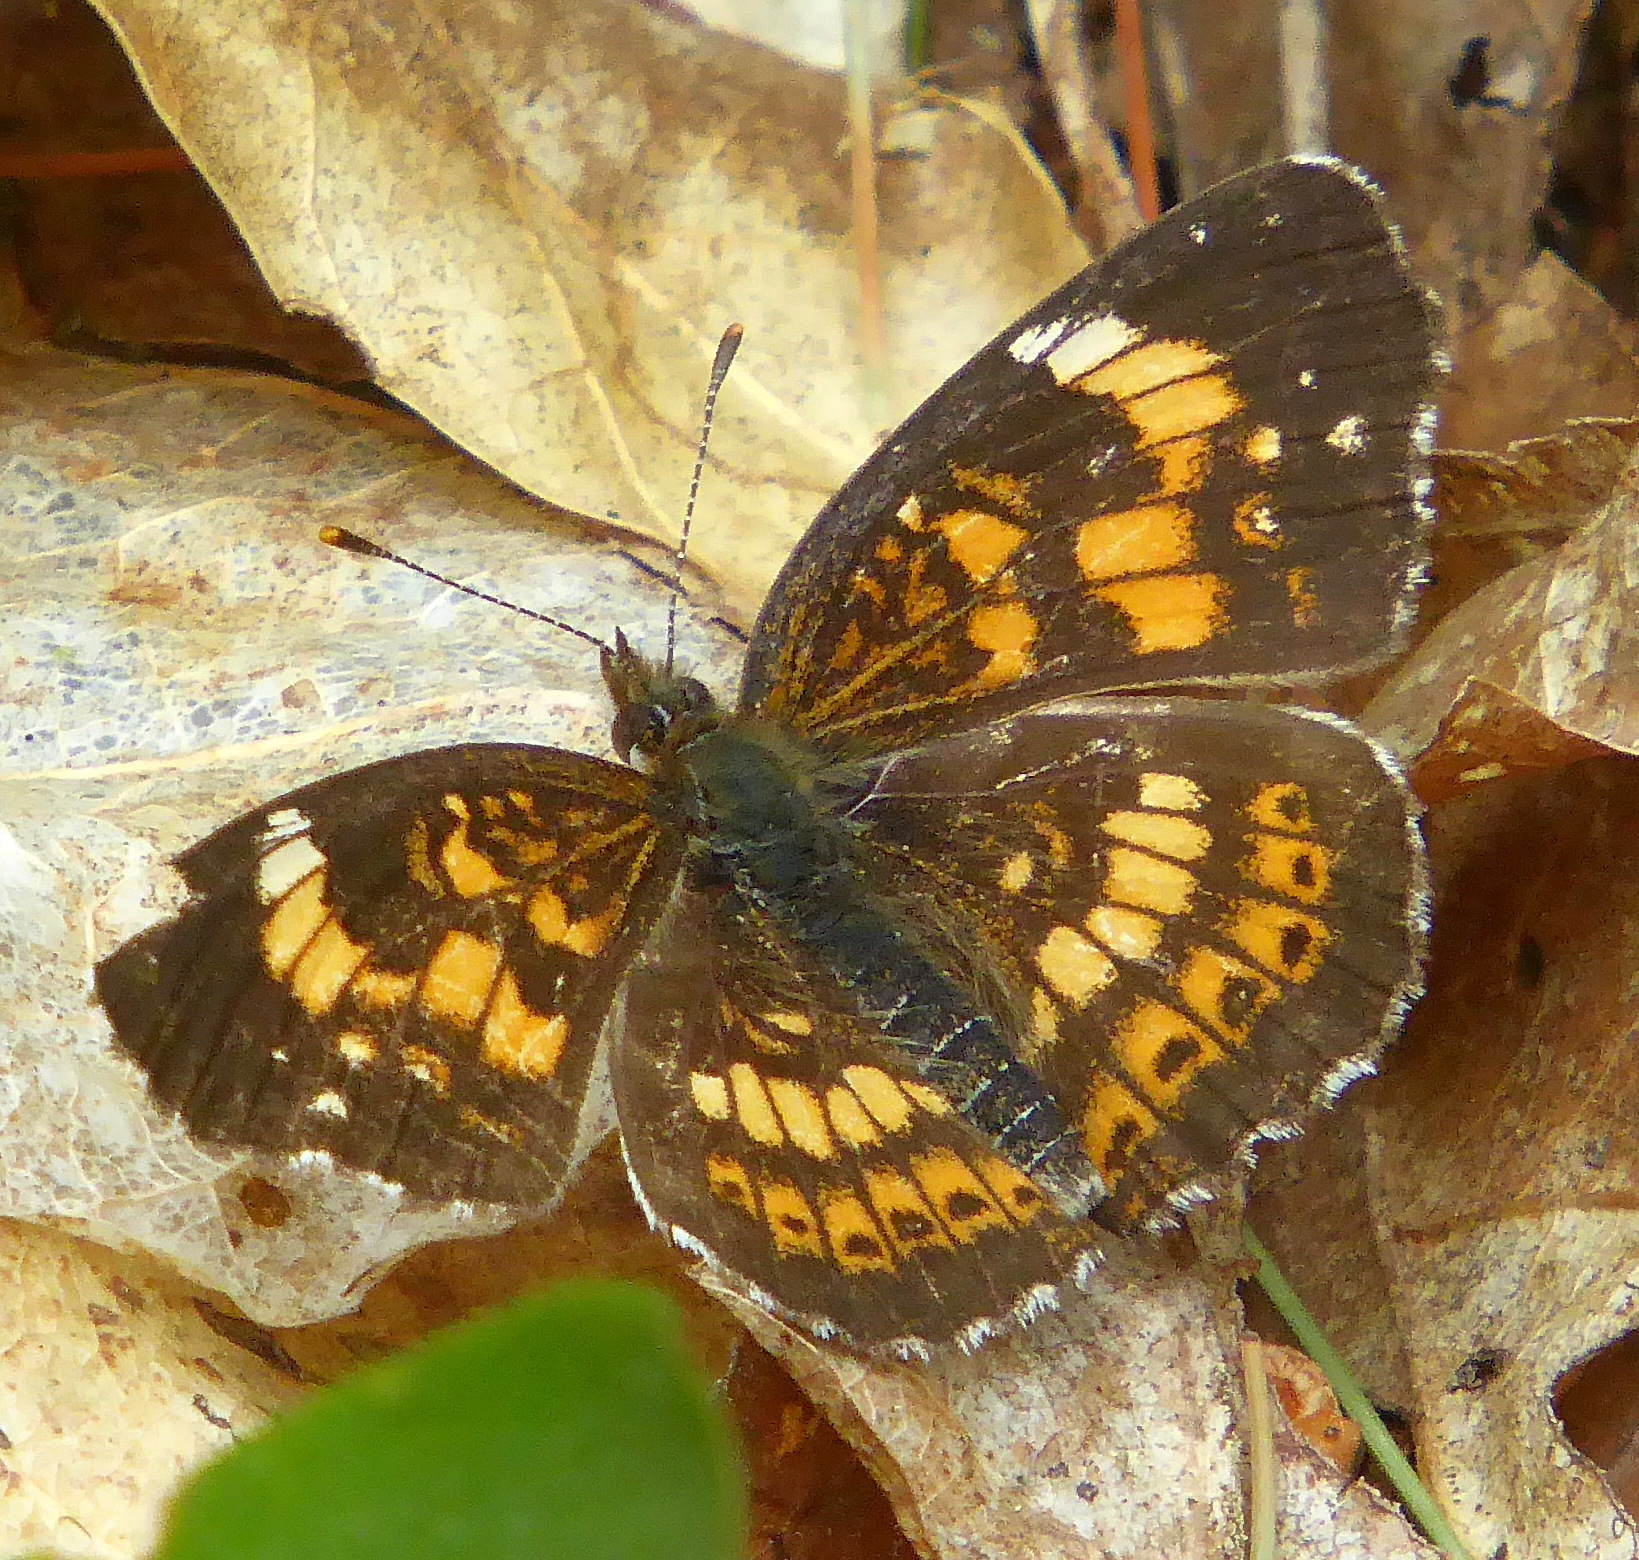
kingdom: Animalia
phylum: Arthropoda
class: Insecta
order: Lepidoptera
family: Nymphalidae
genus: Chlosyne
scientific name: Chlosyne nycteis
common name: Silvery checkerspot
